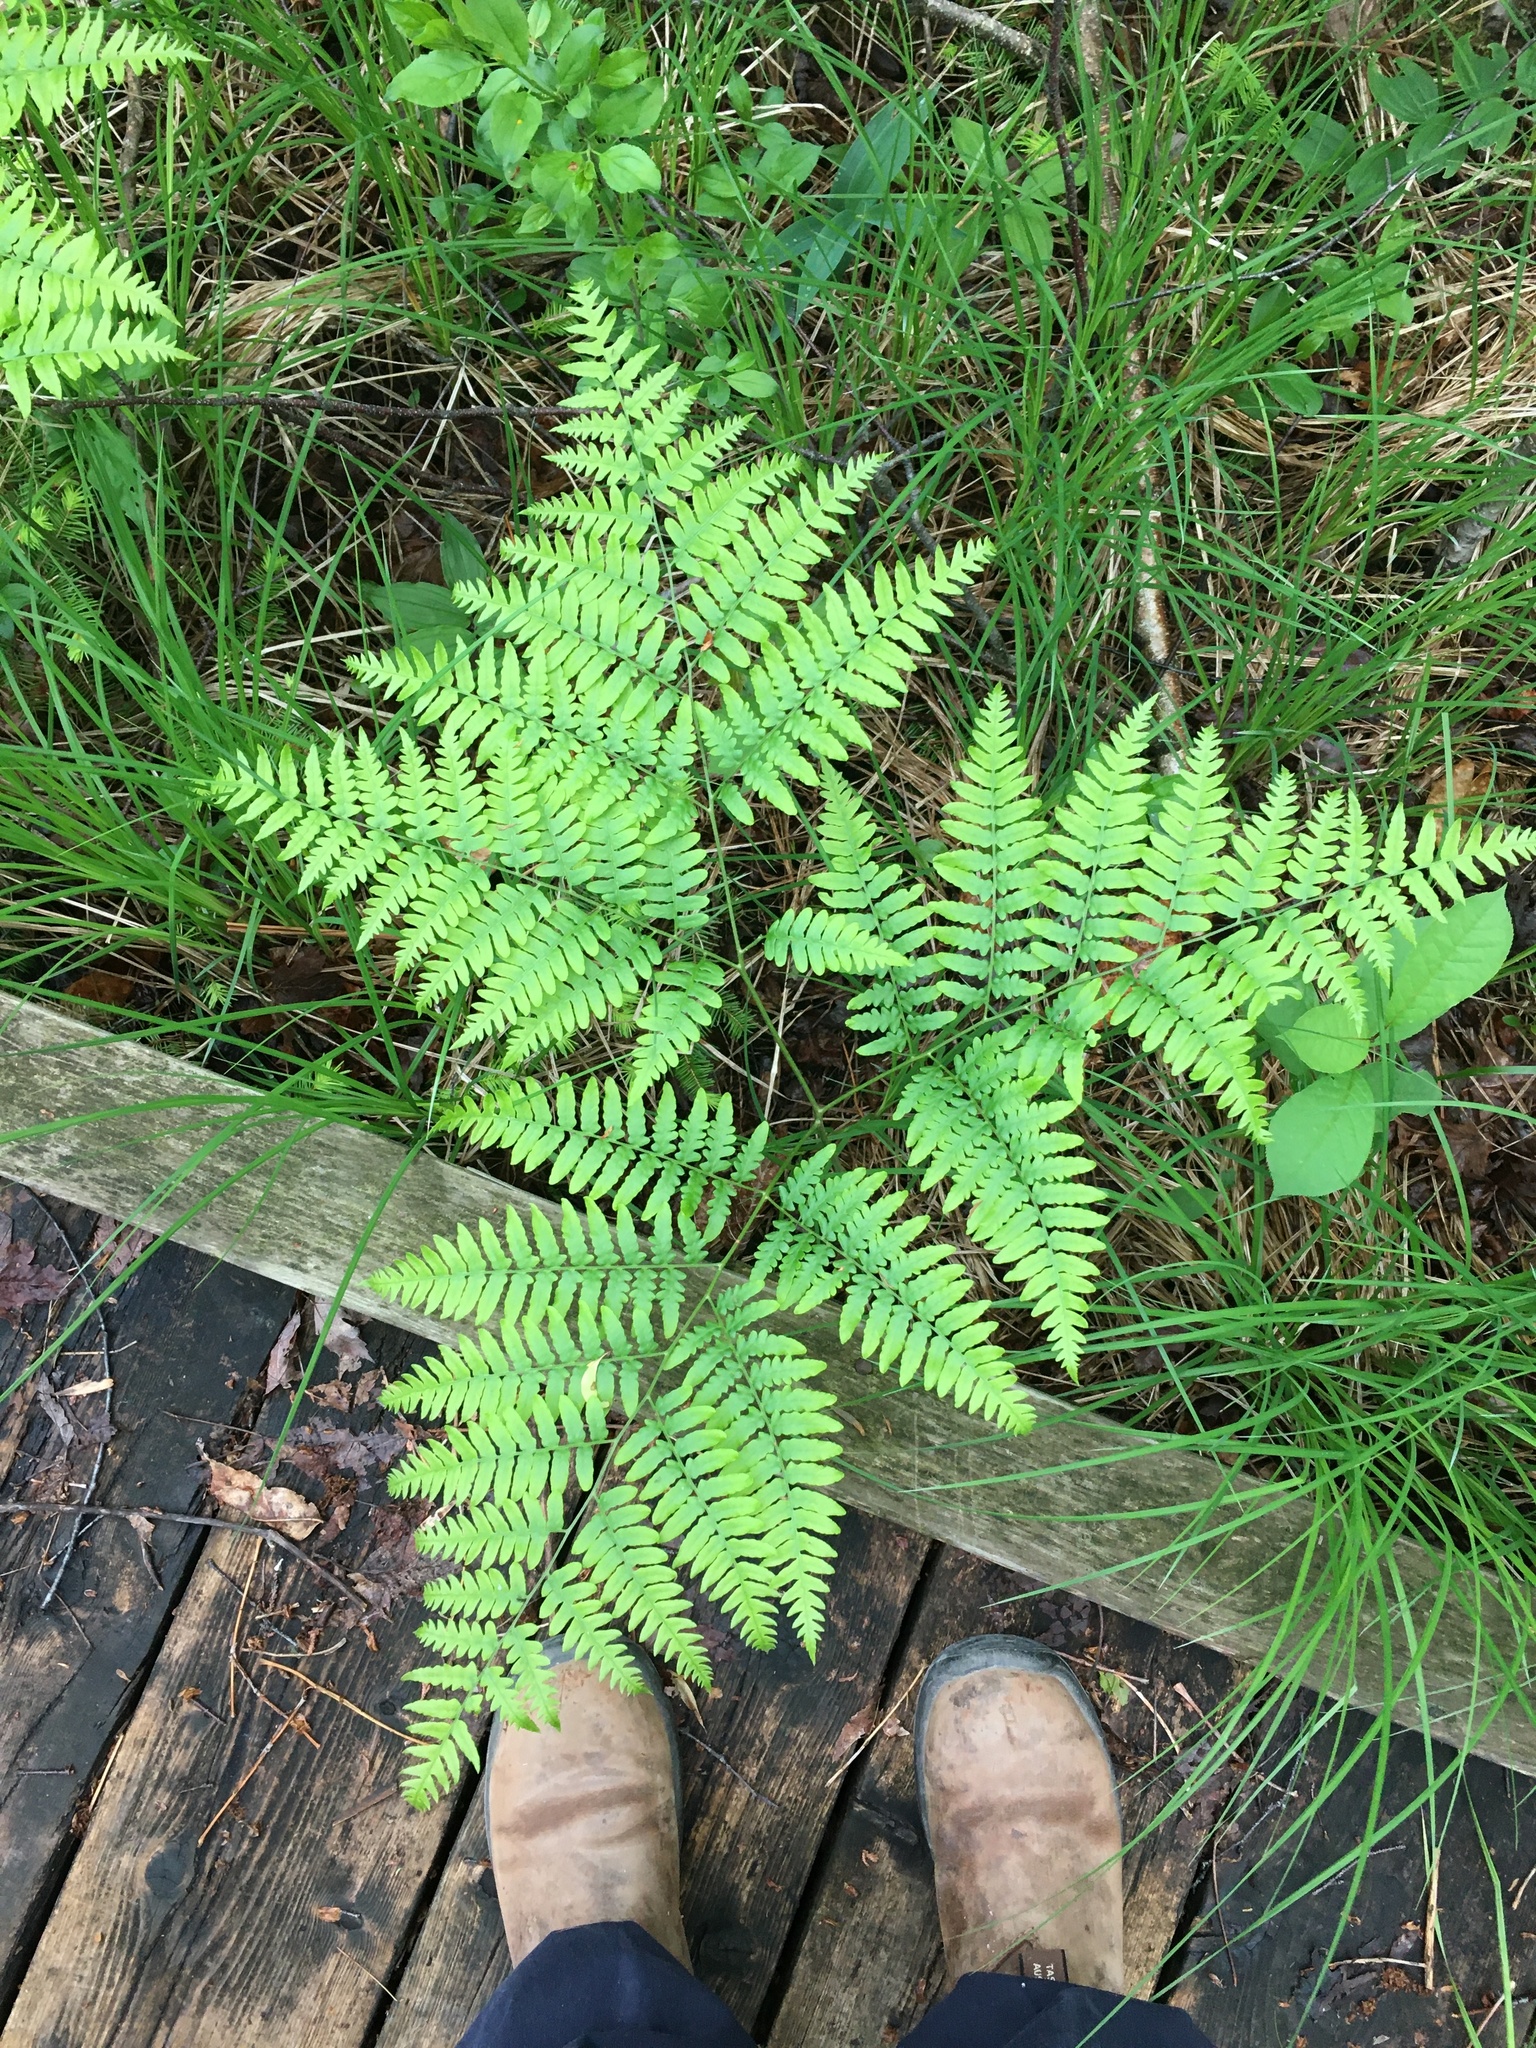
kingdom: Plantae
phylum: Tracheophyta
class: Polypodiopsida
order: Polypodiales
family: Dennstaedtiaceae
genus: Pteridium
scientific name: Pteridium aquilinum
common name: Bracken
